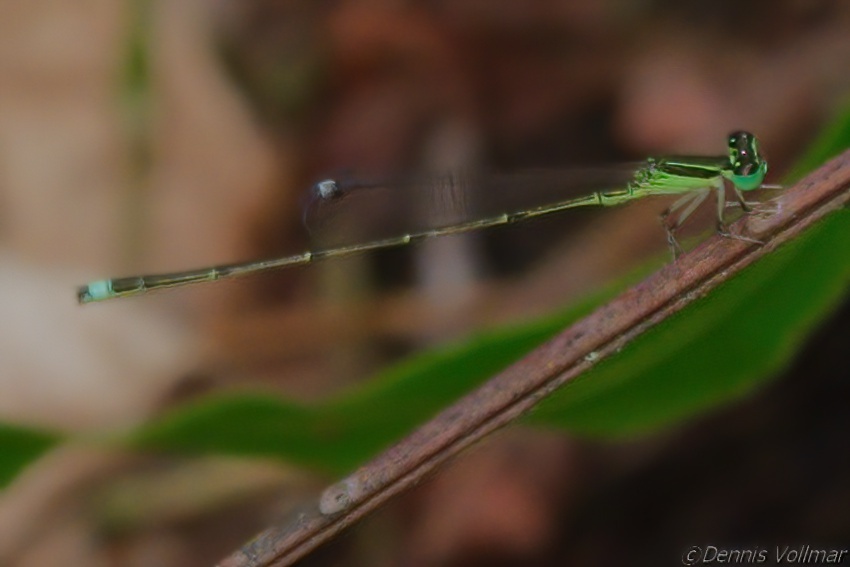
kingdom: Animalia
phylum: Arthropoda
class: Insecta
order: Odonata
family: Coenagrionidae
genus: Ischnura
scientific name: Ischnura prognata
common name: Furtive forktail
